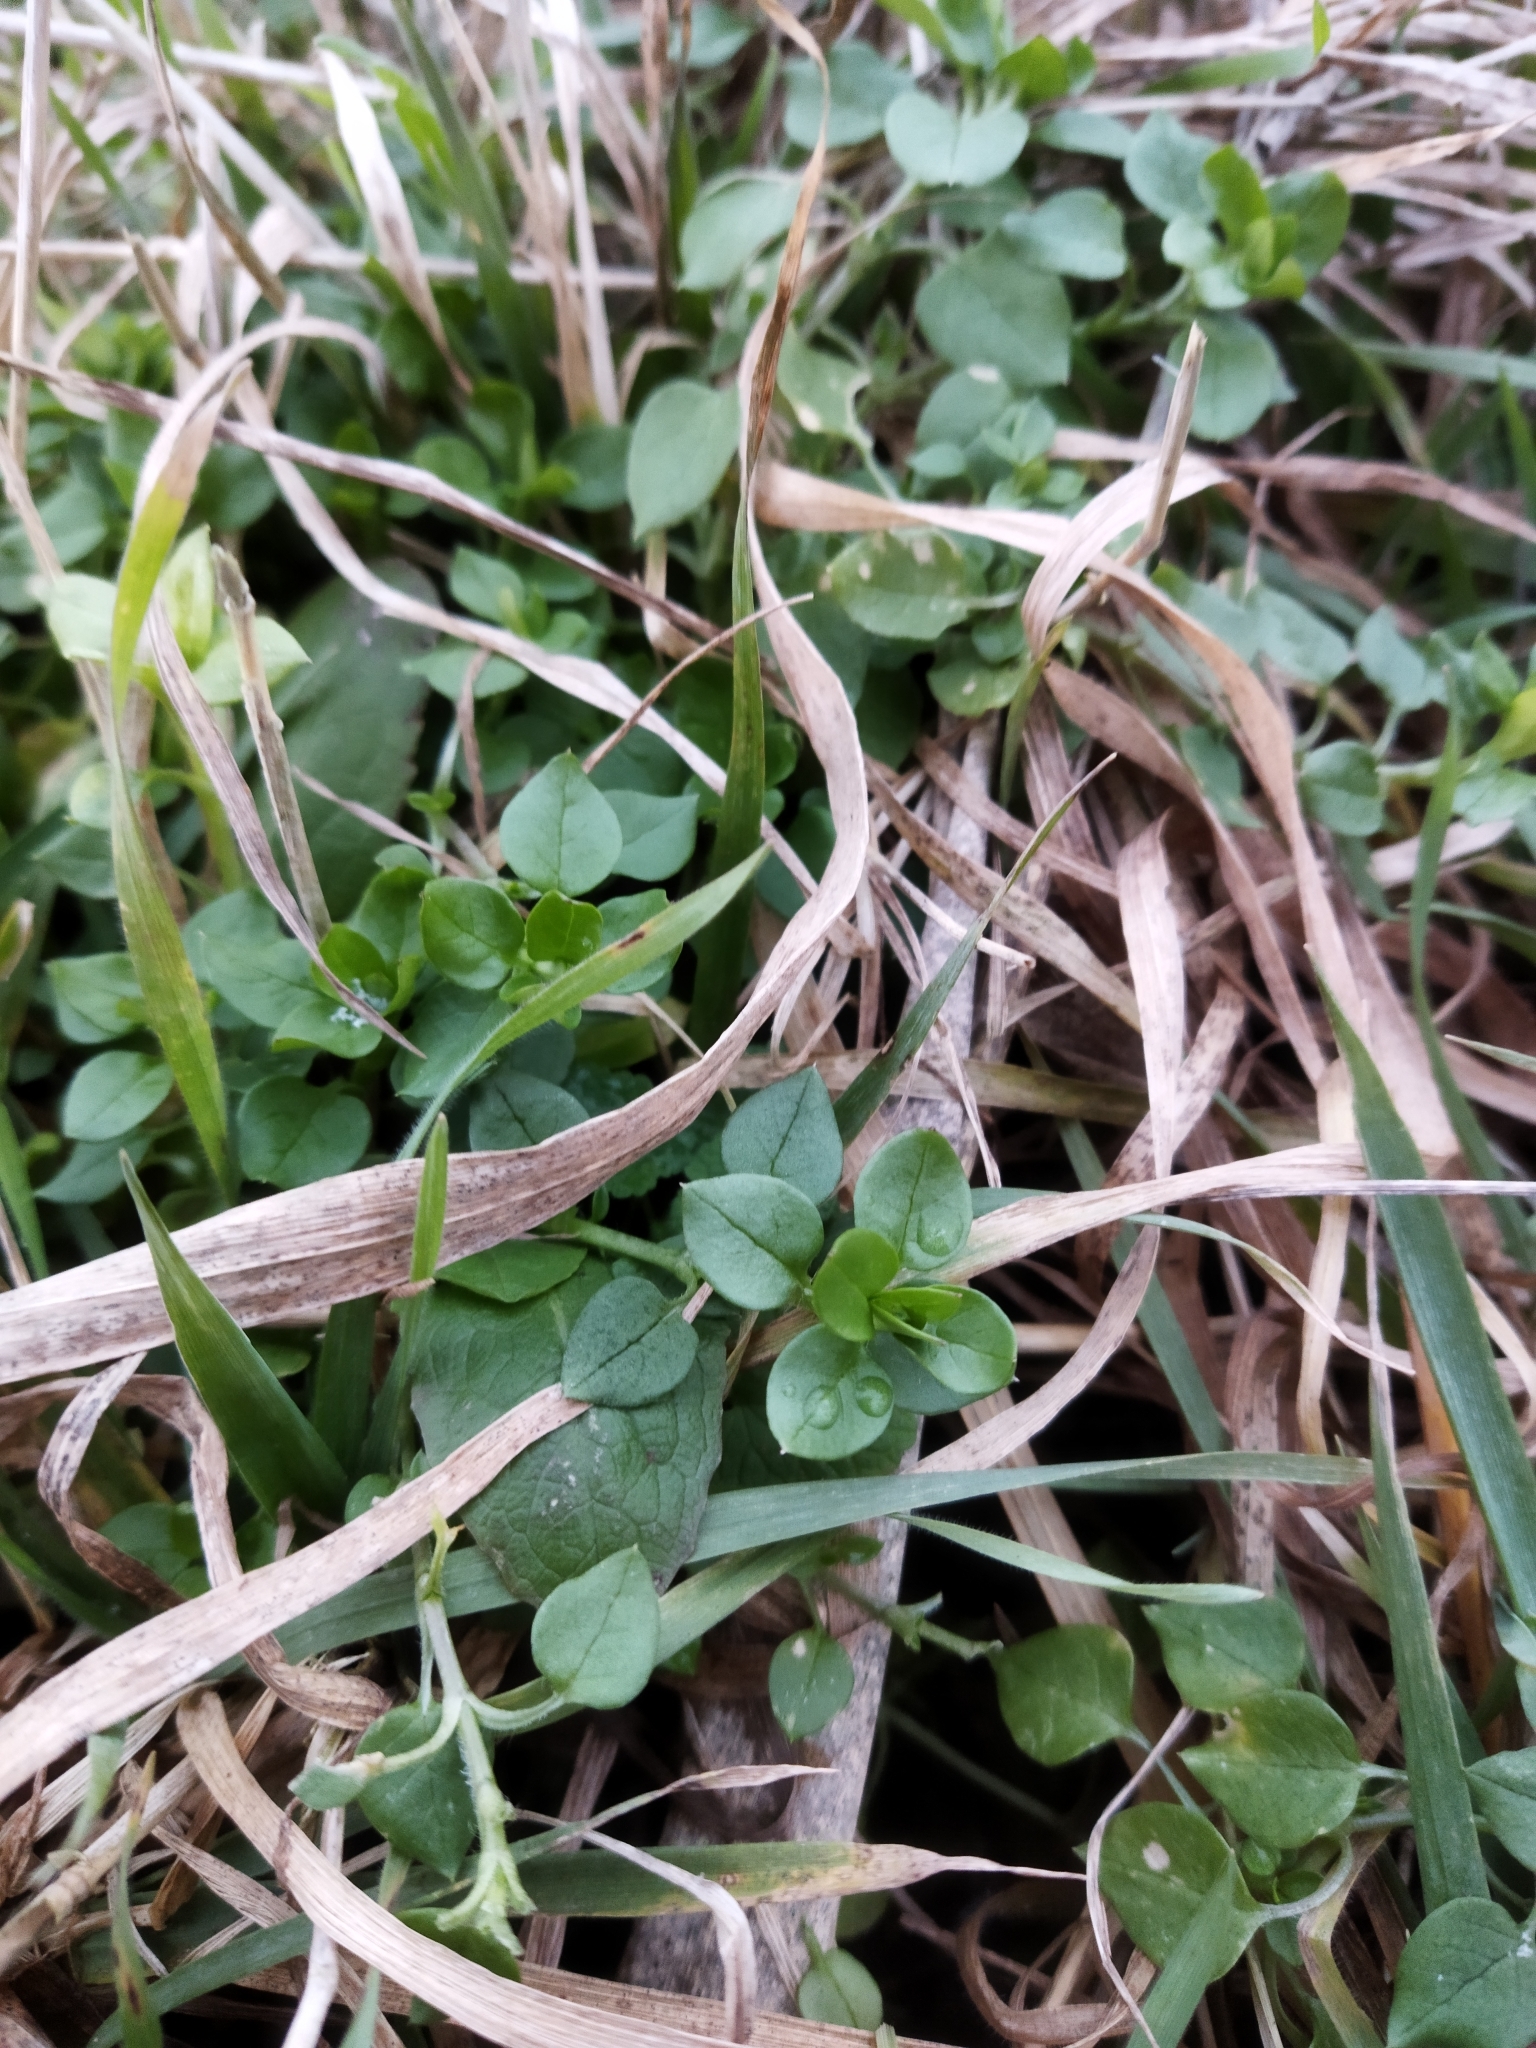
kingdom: Plantae
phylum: Tracheophyta
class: Magnoliopsida
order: Caryophyllales
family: Caryophyllaceae
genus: Stellaria
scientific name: Stellaria
